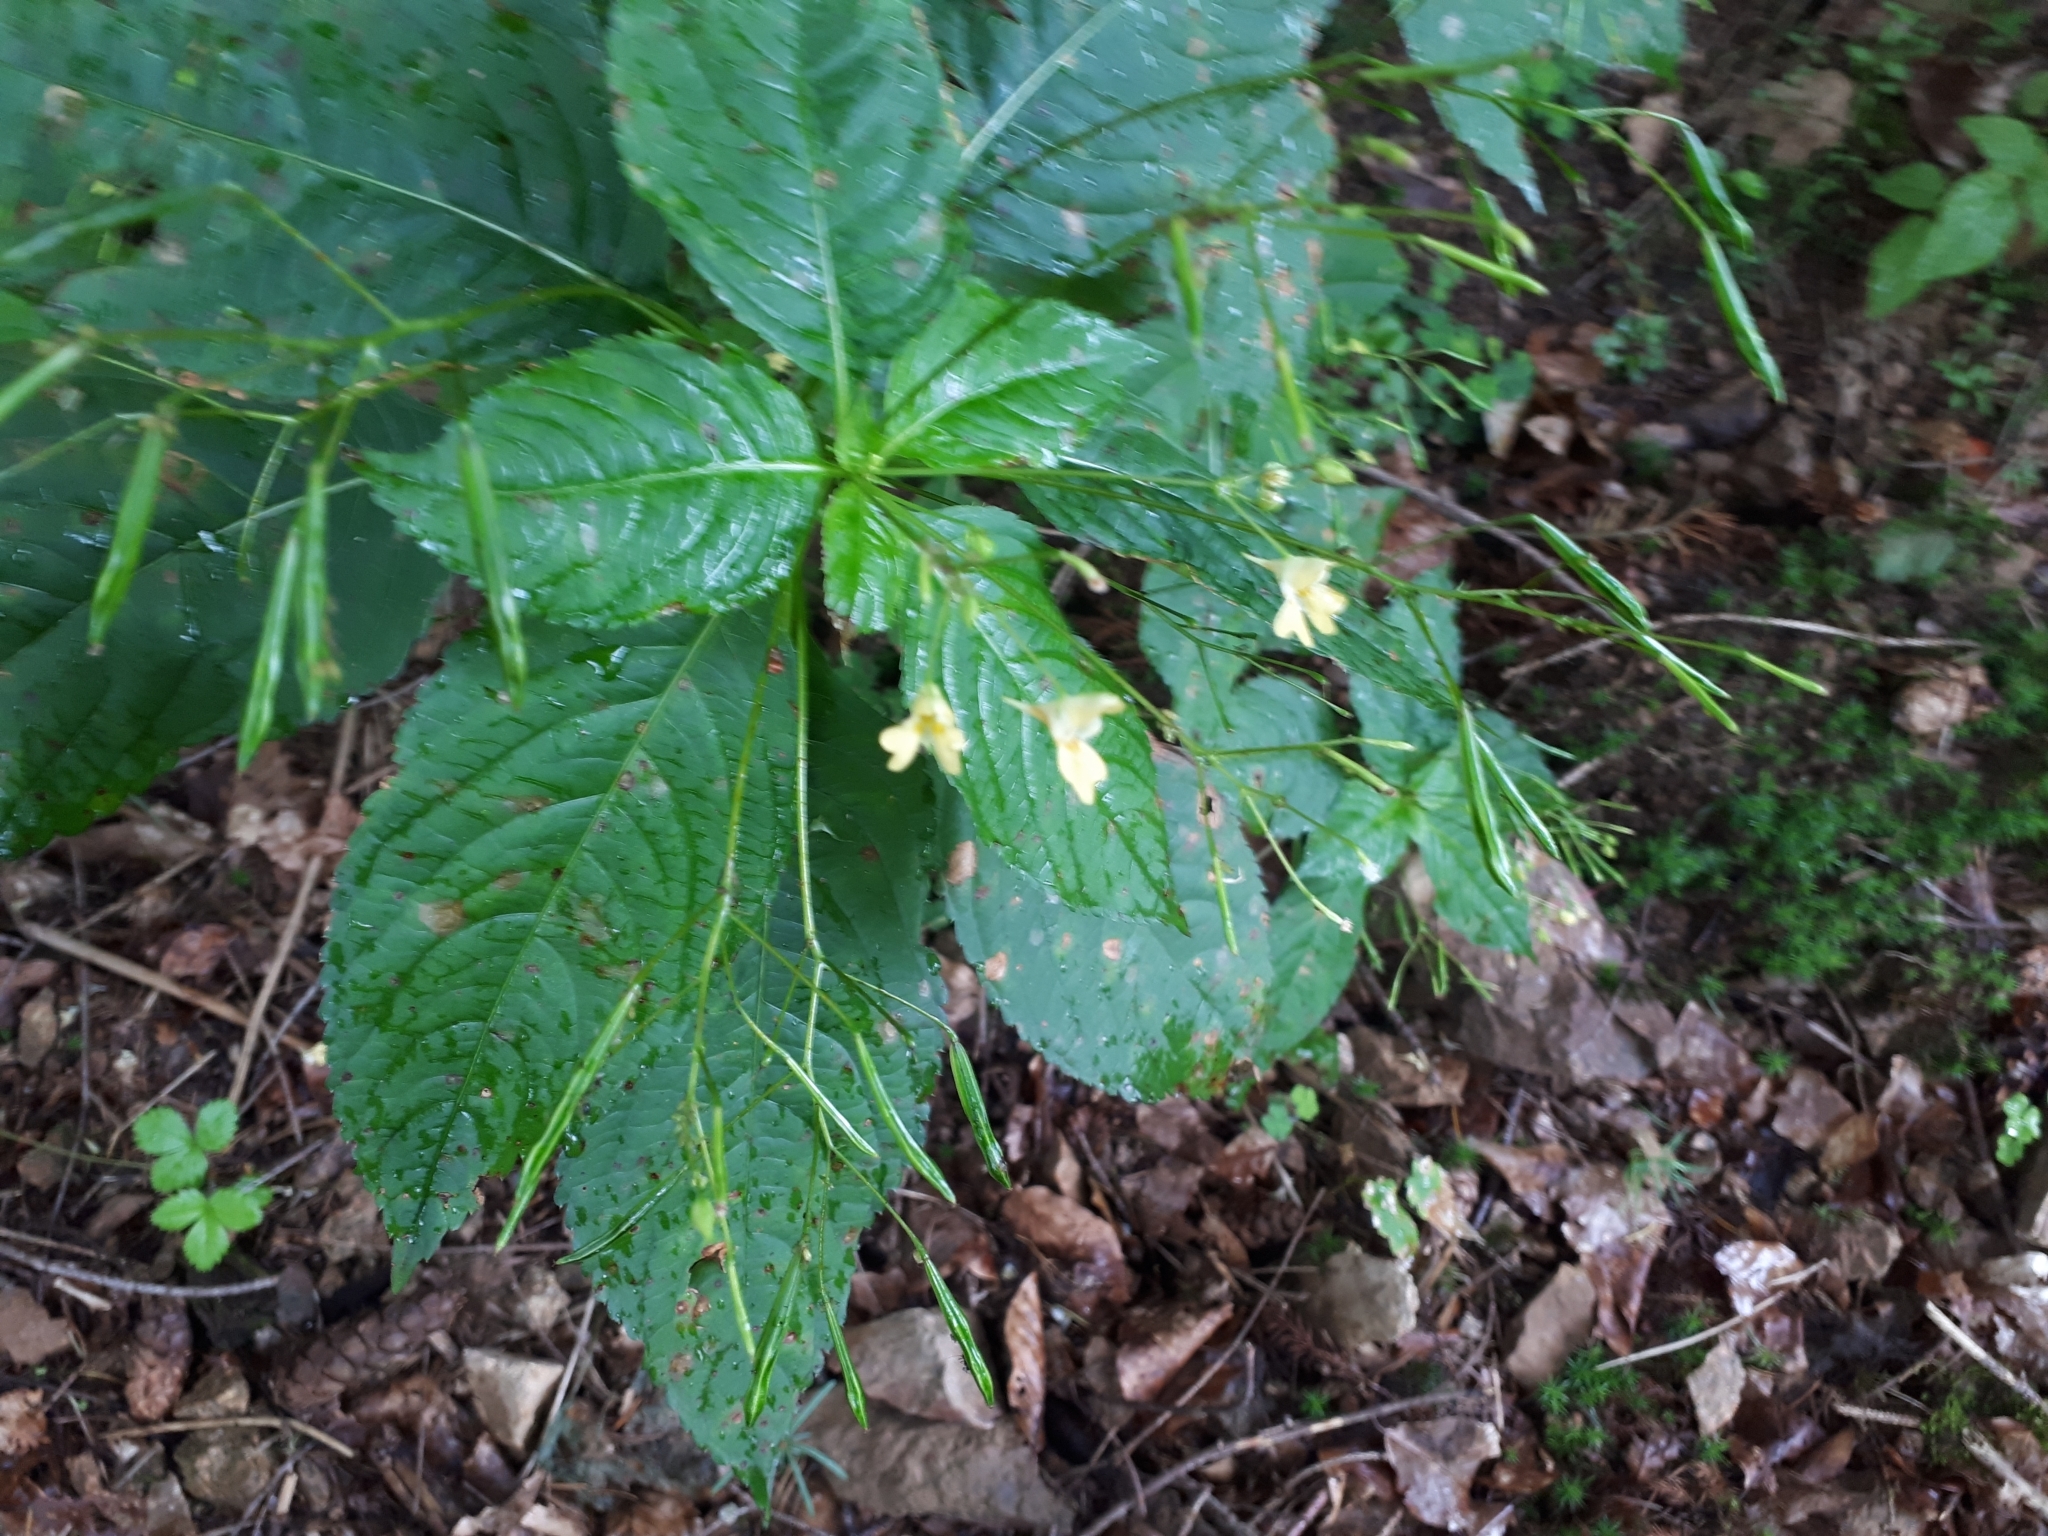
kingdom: Plantae
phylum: Tracheophyta
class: Magnoliopsida
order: Ericales
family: Balsaminaceae
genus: Impatiens
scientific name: Impatiens parviflora
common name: Small balsam
